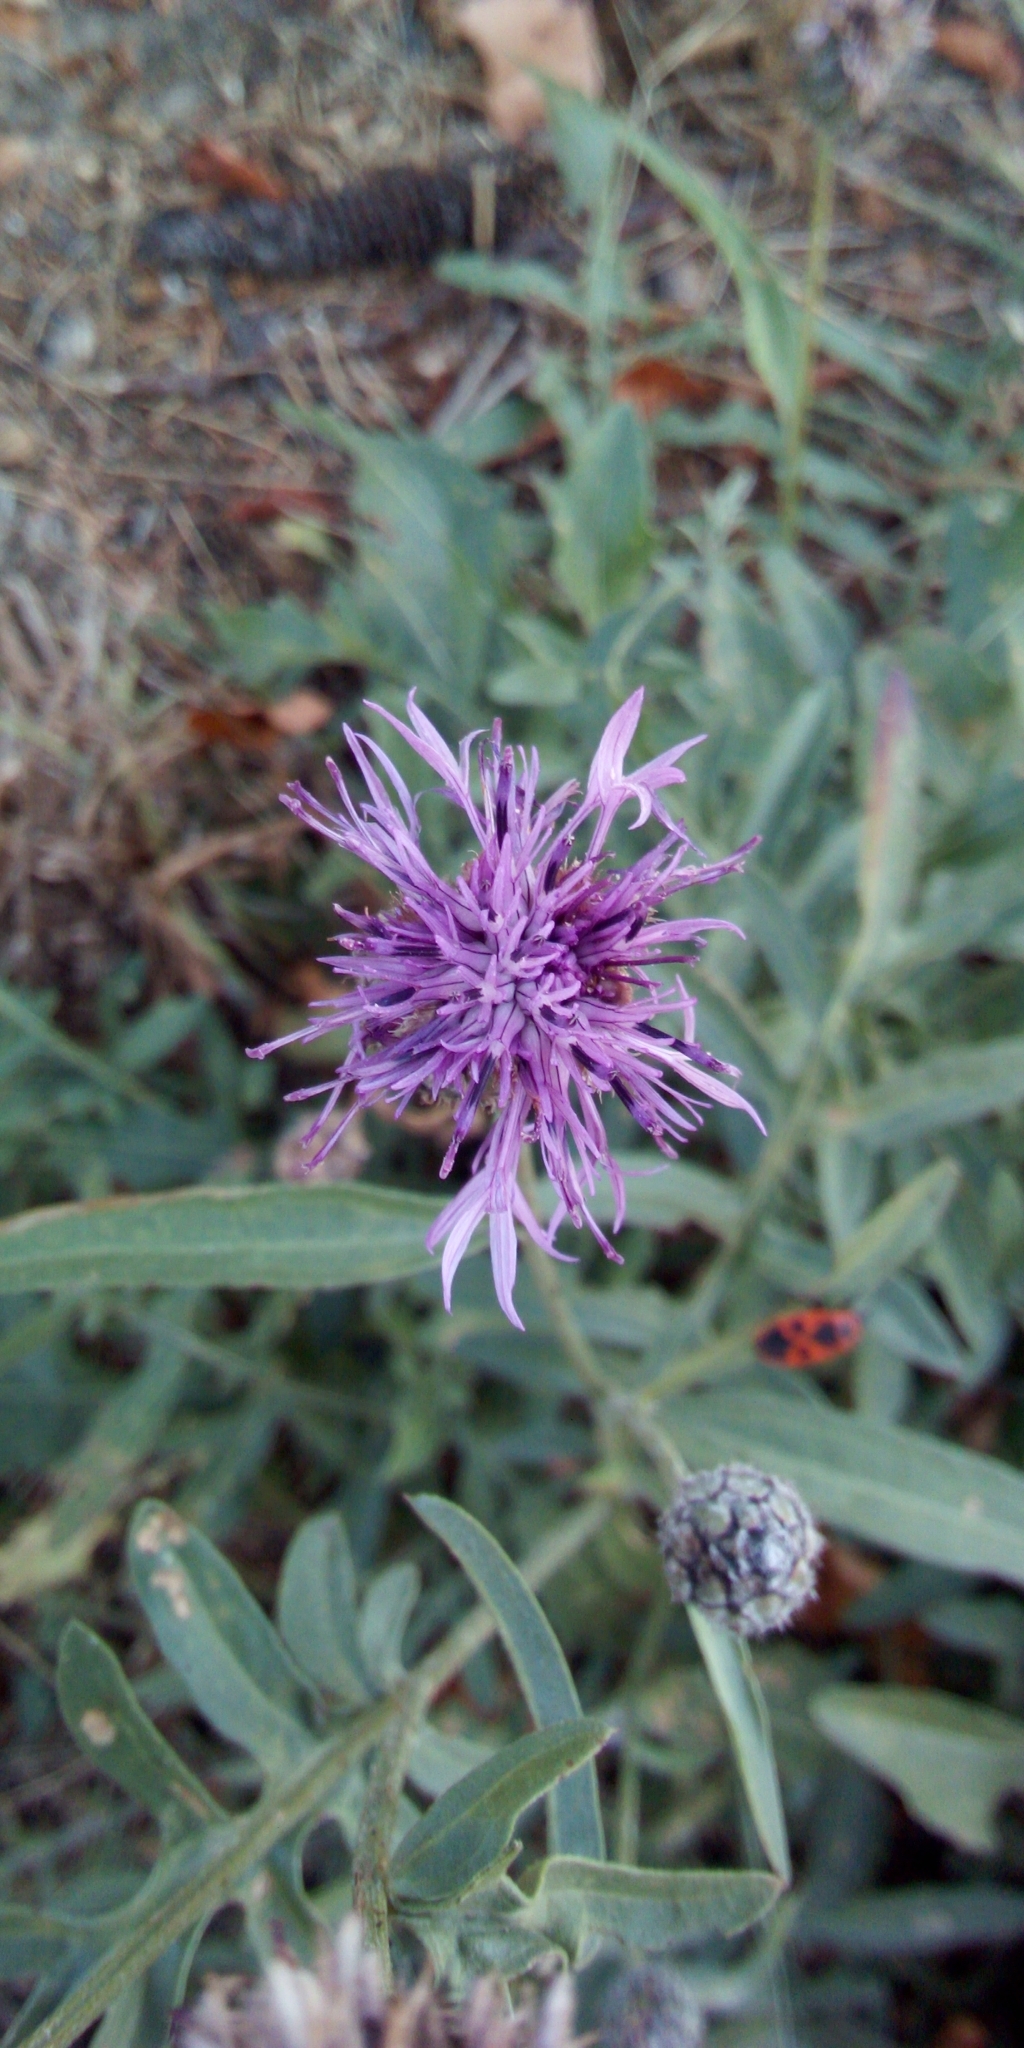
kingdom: Plantae
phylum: Tracheophyta
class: Magnoliopsida
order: Asterales
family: Asteraceae
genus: Centaurea
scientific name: Centaurea scabiosa
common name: Greater knapweed
